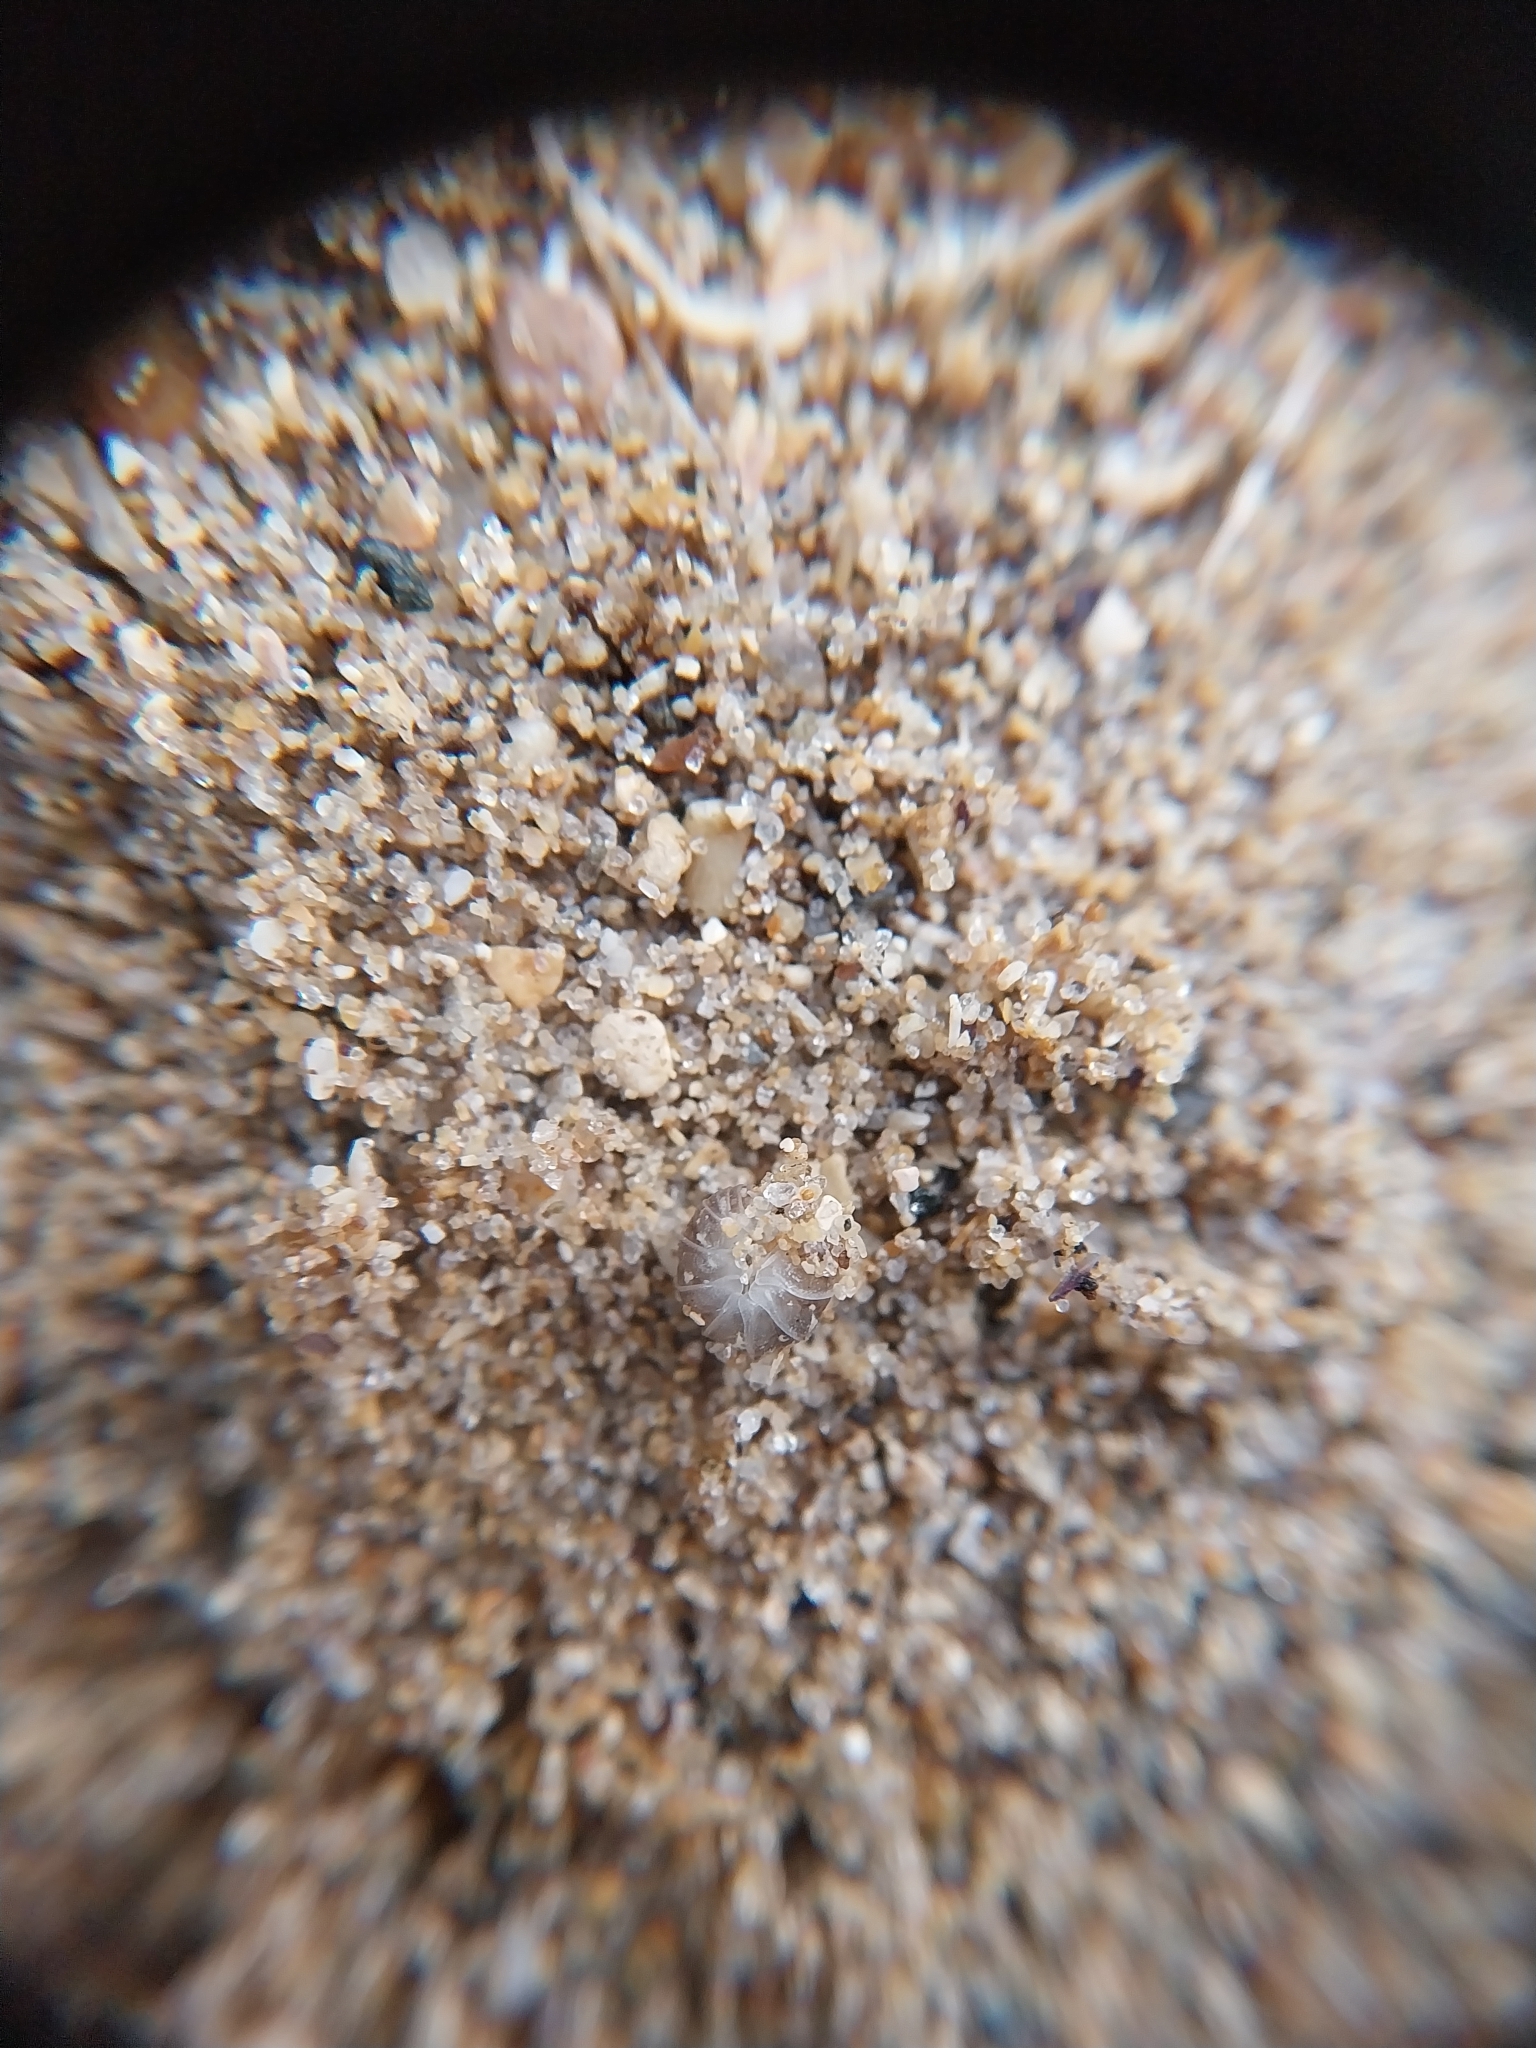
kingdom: Animalia
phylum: Arthropoda
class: Malacostraca
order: Isopoda
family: Armadillidiidae
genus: Armadillidium
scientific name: Armadillidium album
